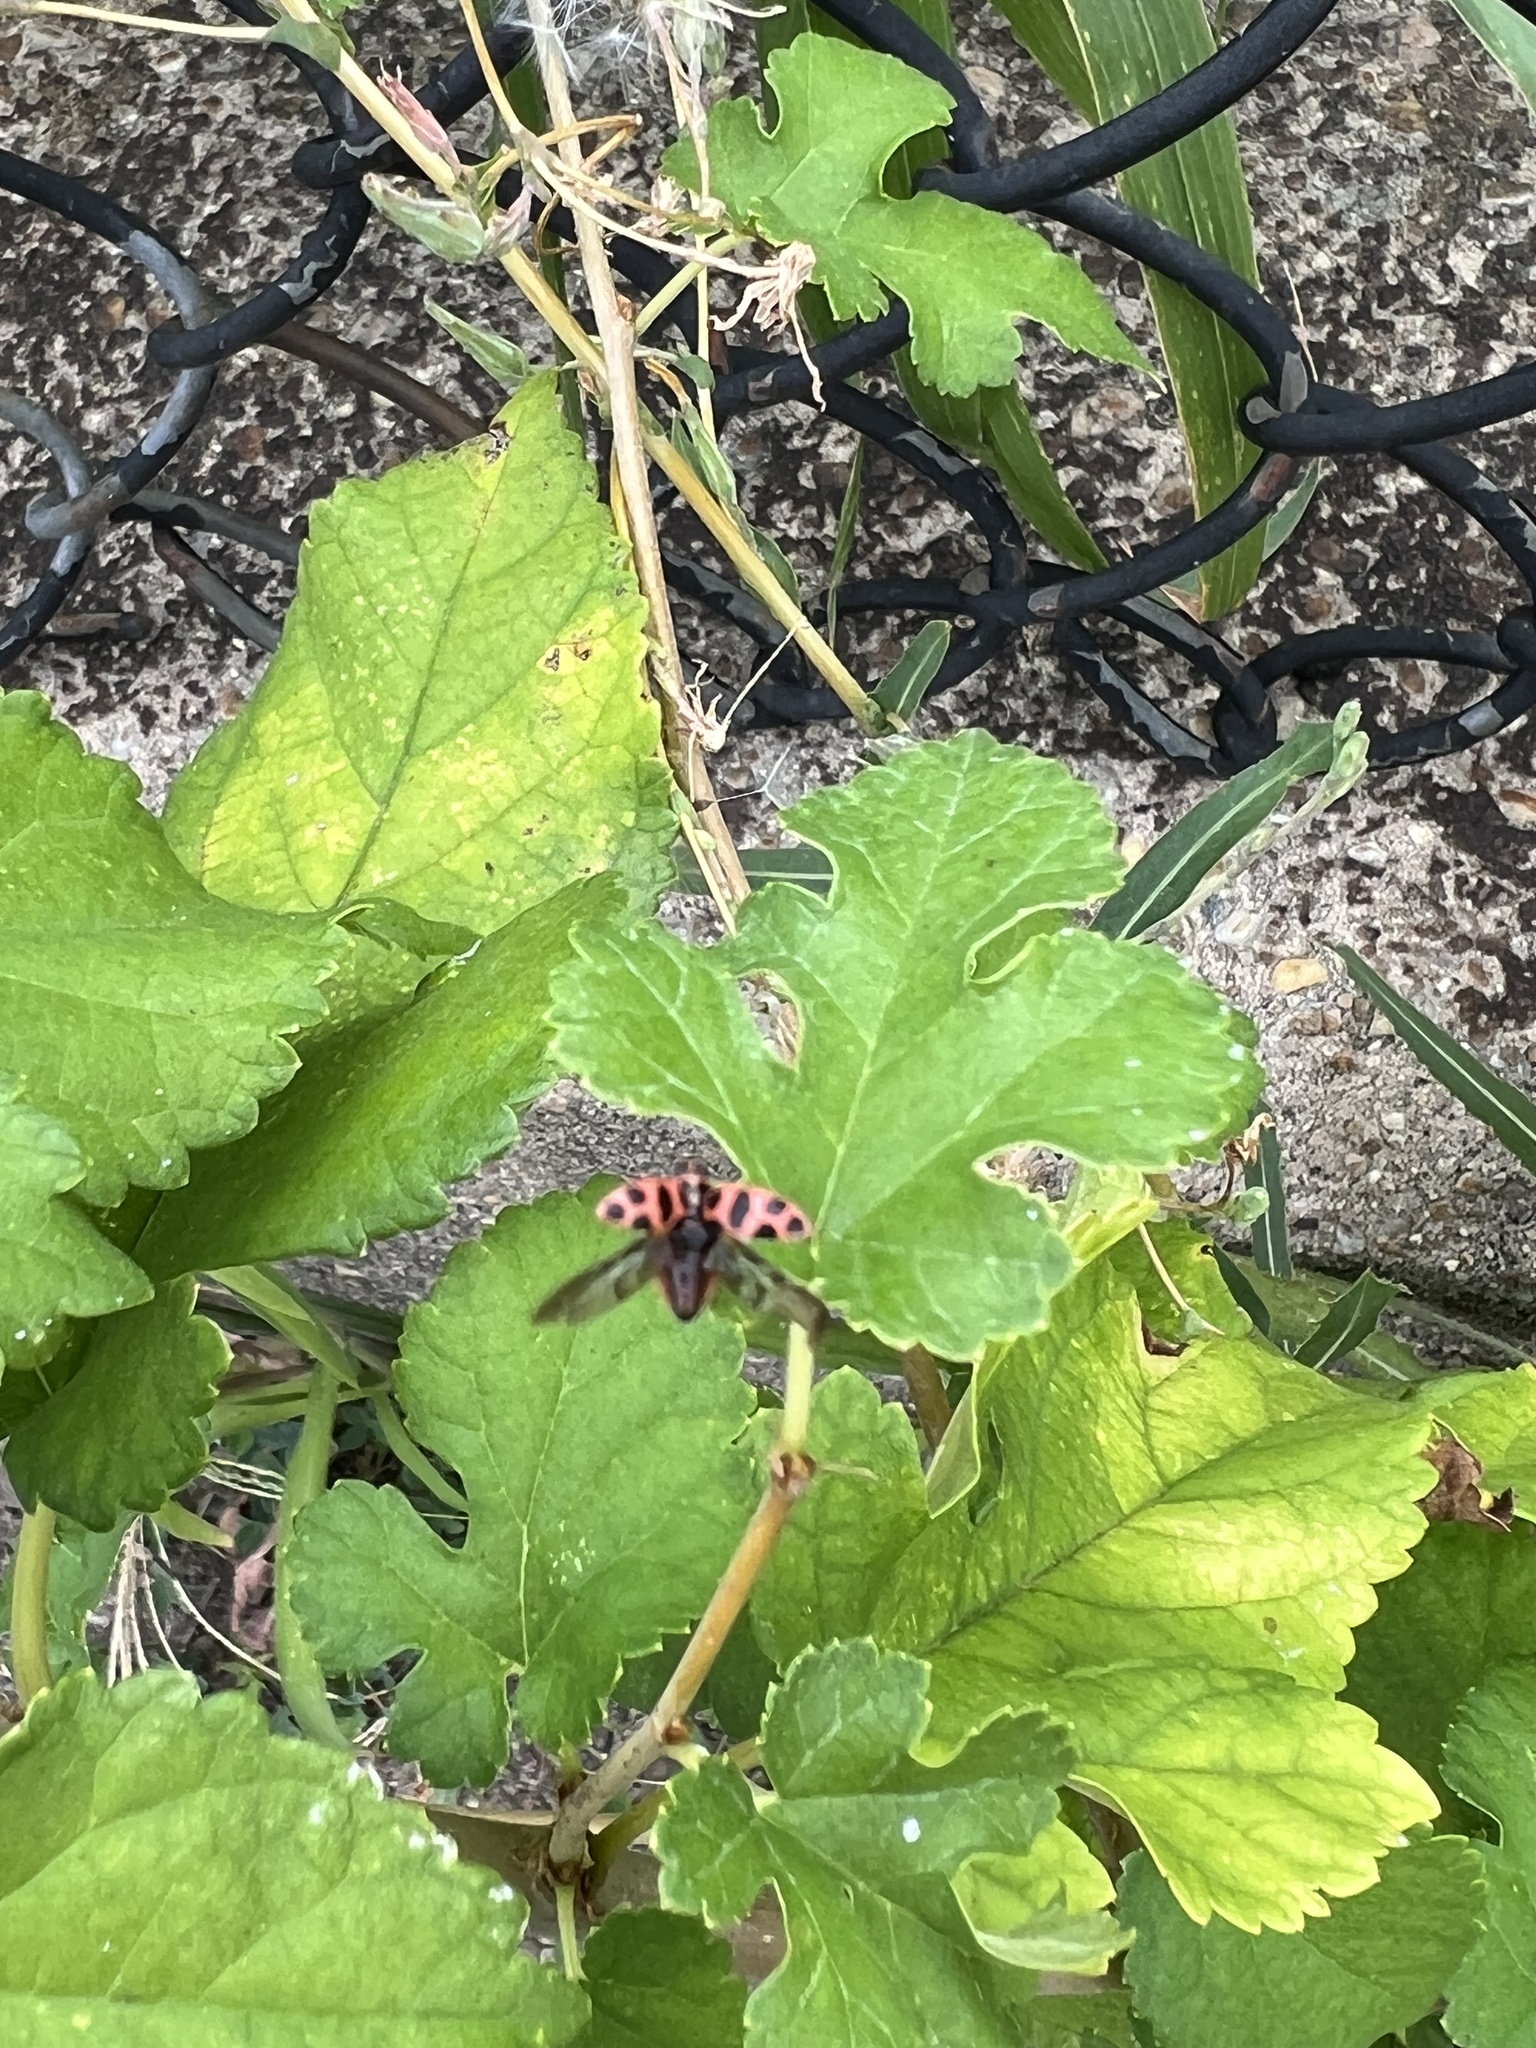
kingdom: Animalia
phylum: Arthropoda
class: Insecta
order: Coleoptera
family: Coccinellidae
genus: Coleomegilla
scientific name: Coleomegilla maculata
